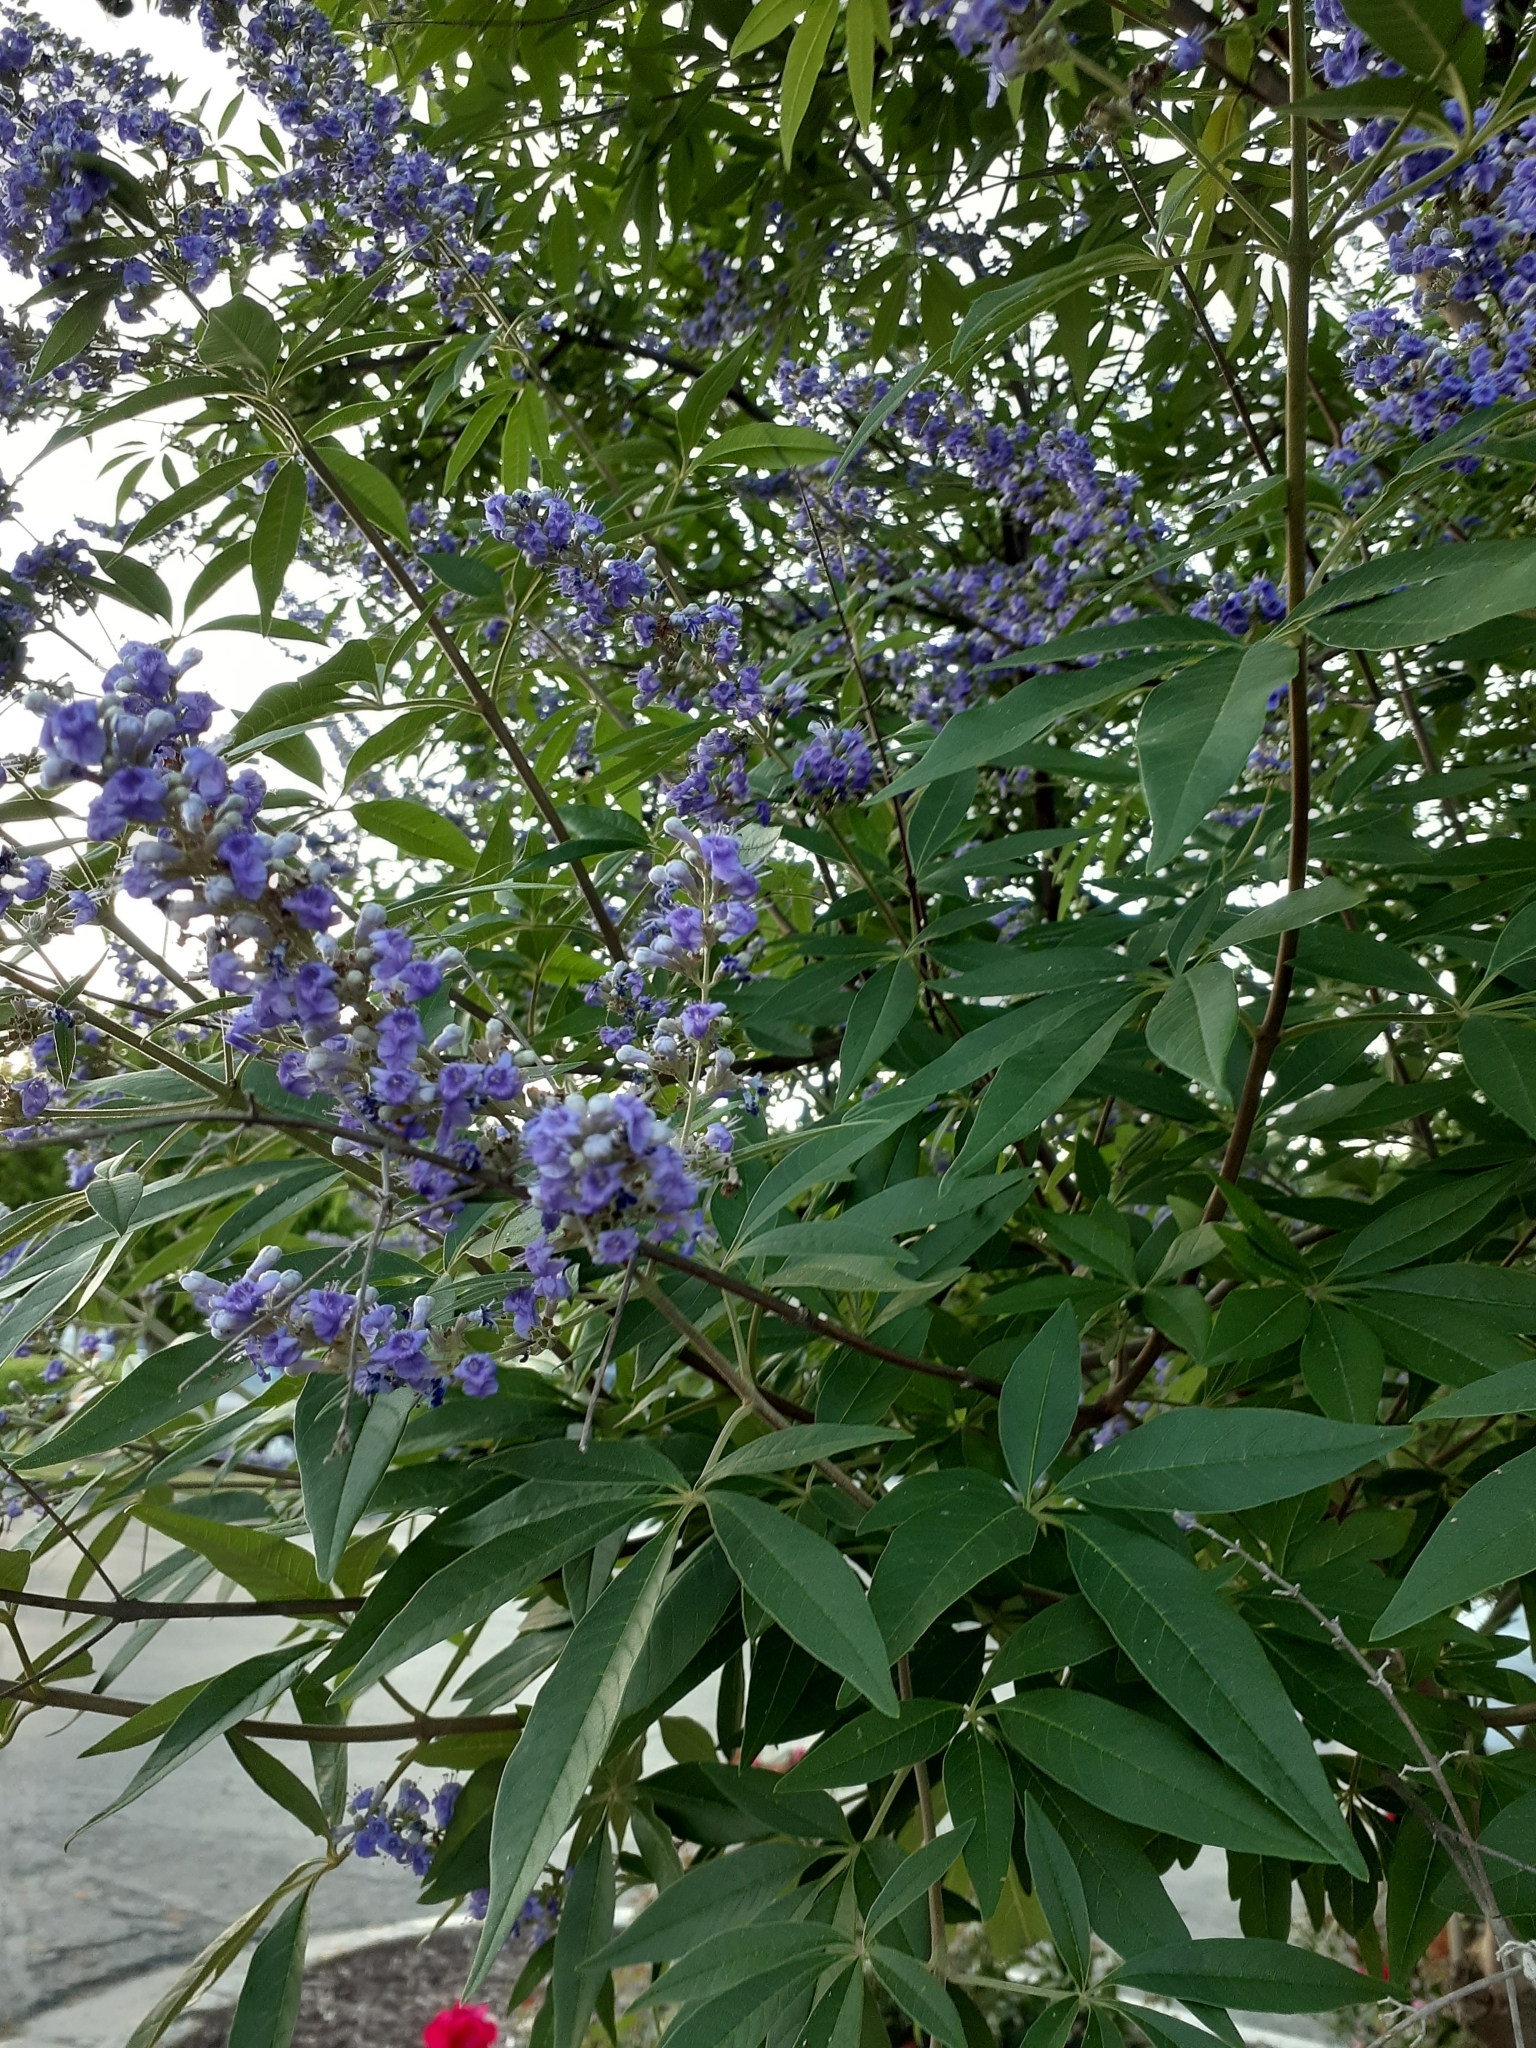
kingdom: Plantae
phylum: Tracheophyta
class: Magnoliopsida
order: Lamiales
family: Lamiaceae
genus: Vitex
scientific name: Vitex agnus-castus
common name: Chasteberry
